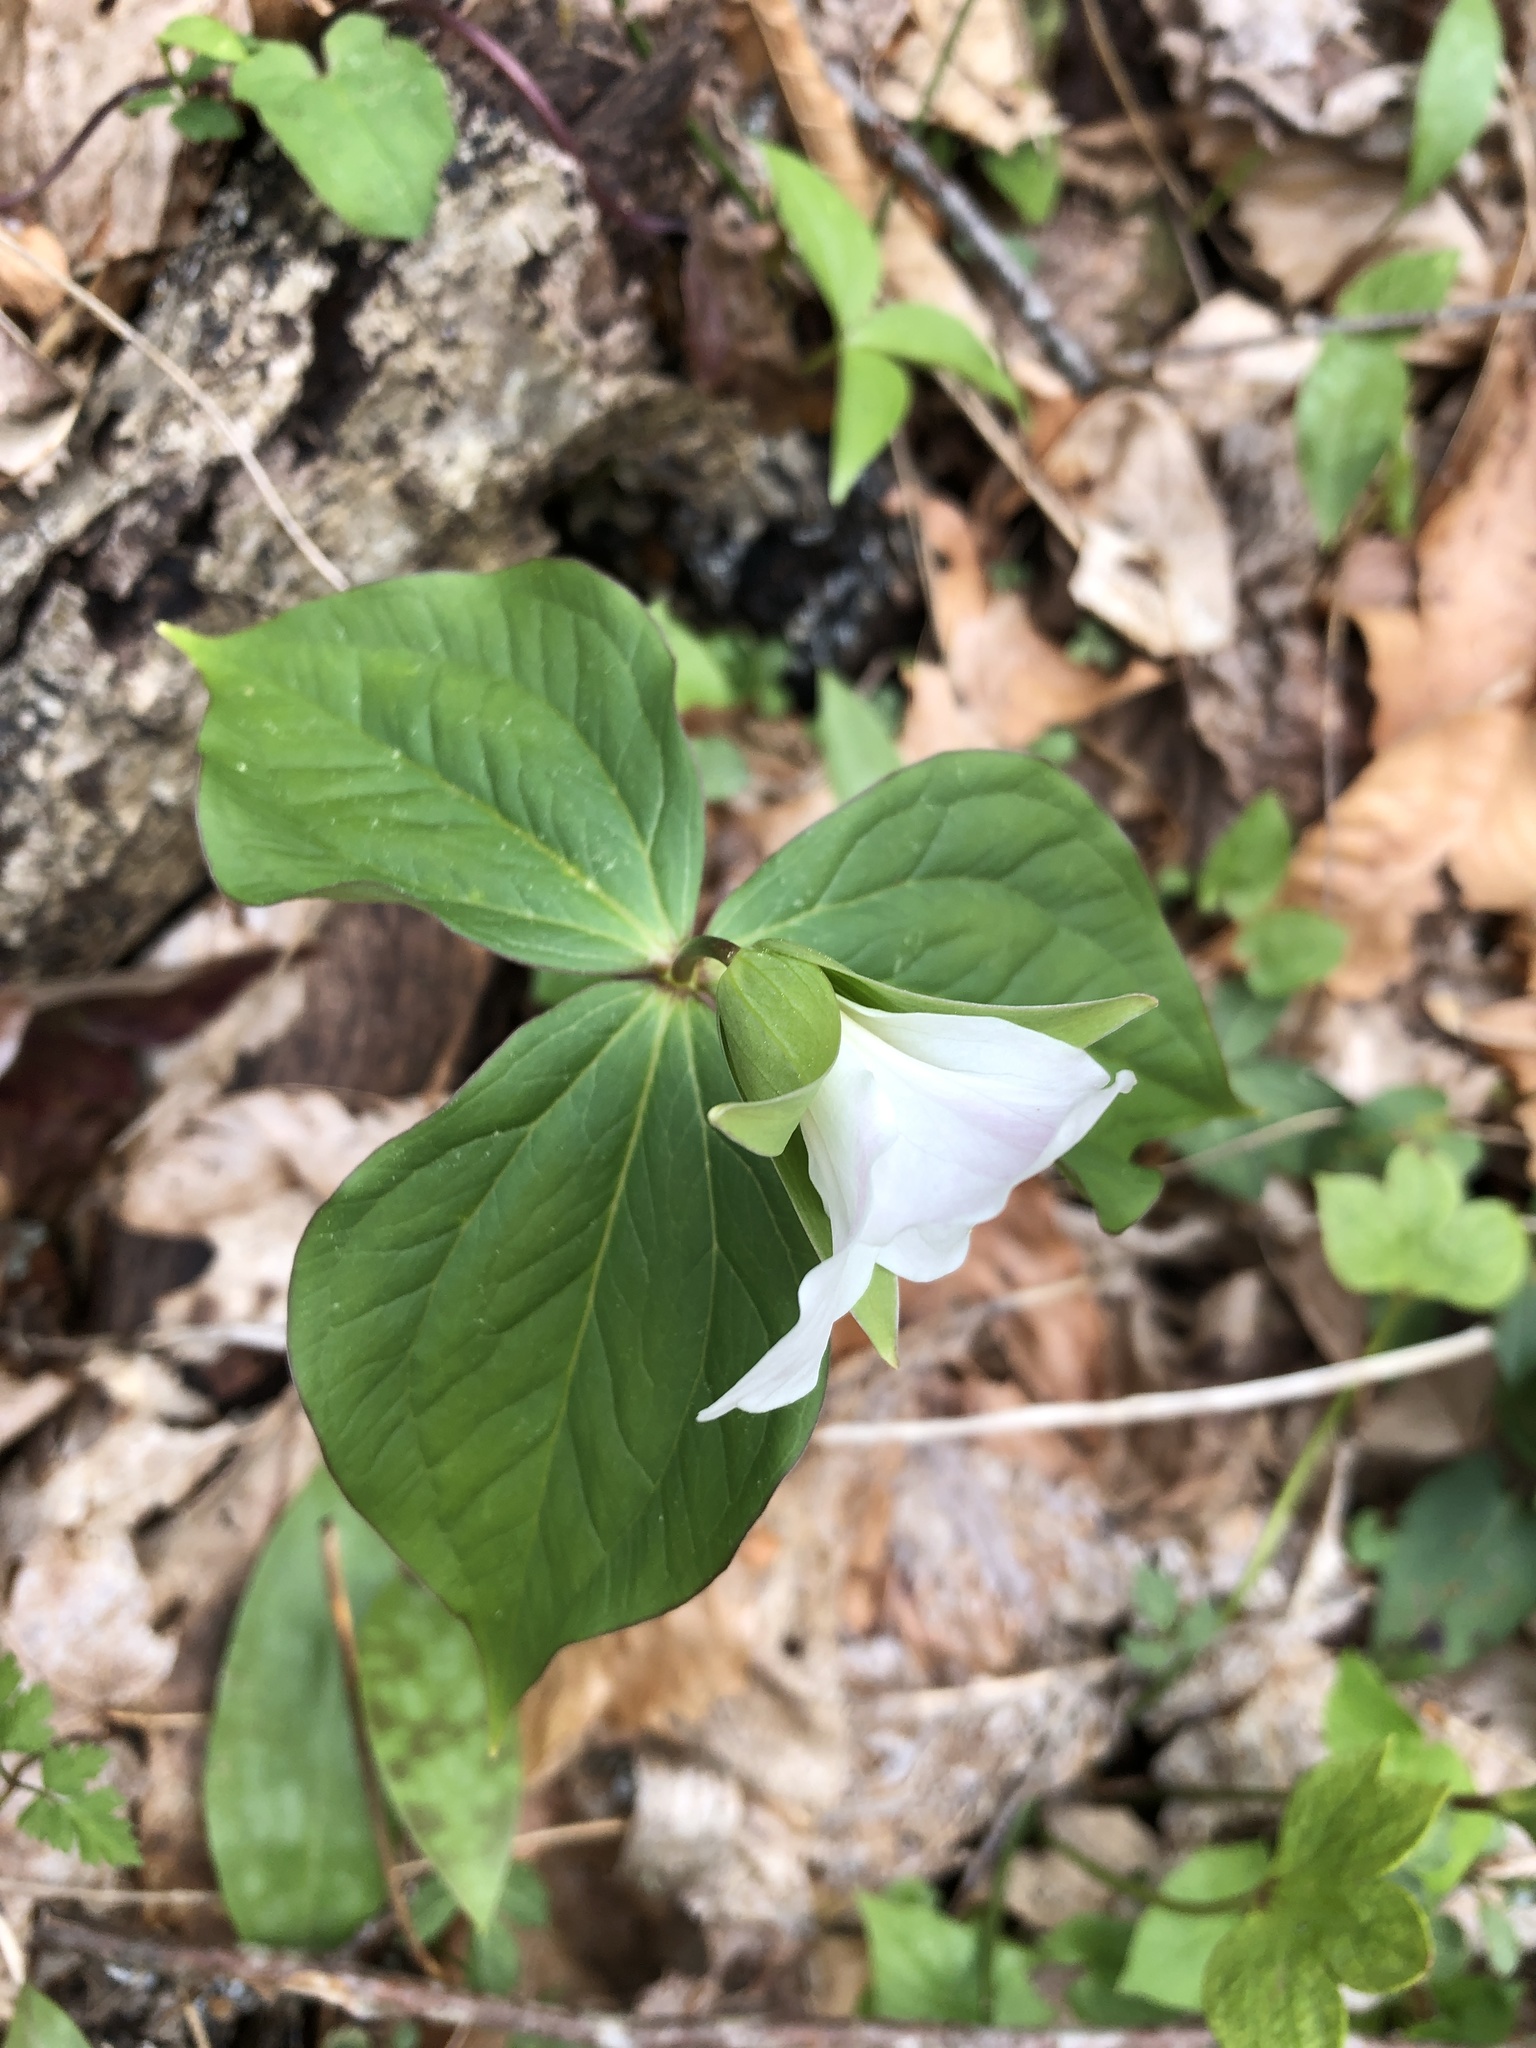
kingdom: Plantae
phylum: Tracheophyta
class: Liliopsida
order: Liliales
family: Melanthiaceae
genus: Trillium
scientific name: Trillium grandiflorum
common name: Great white trillium
